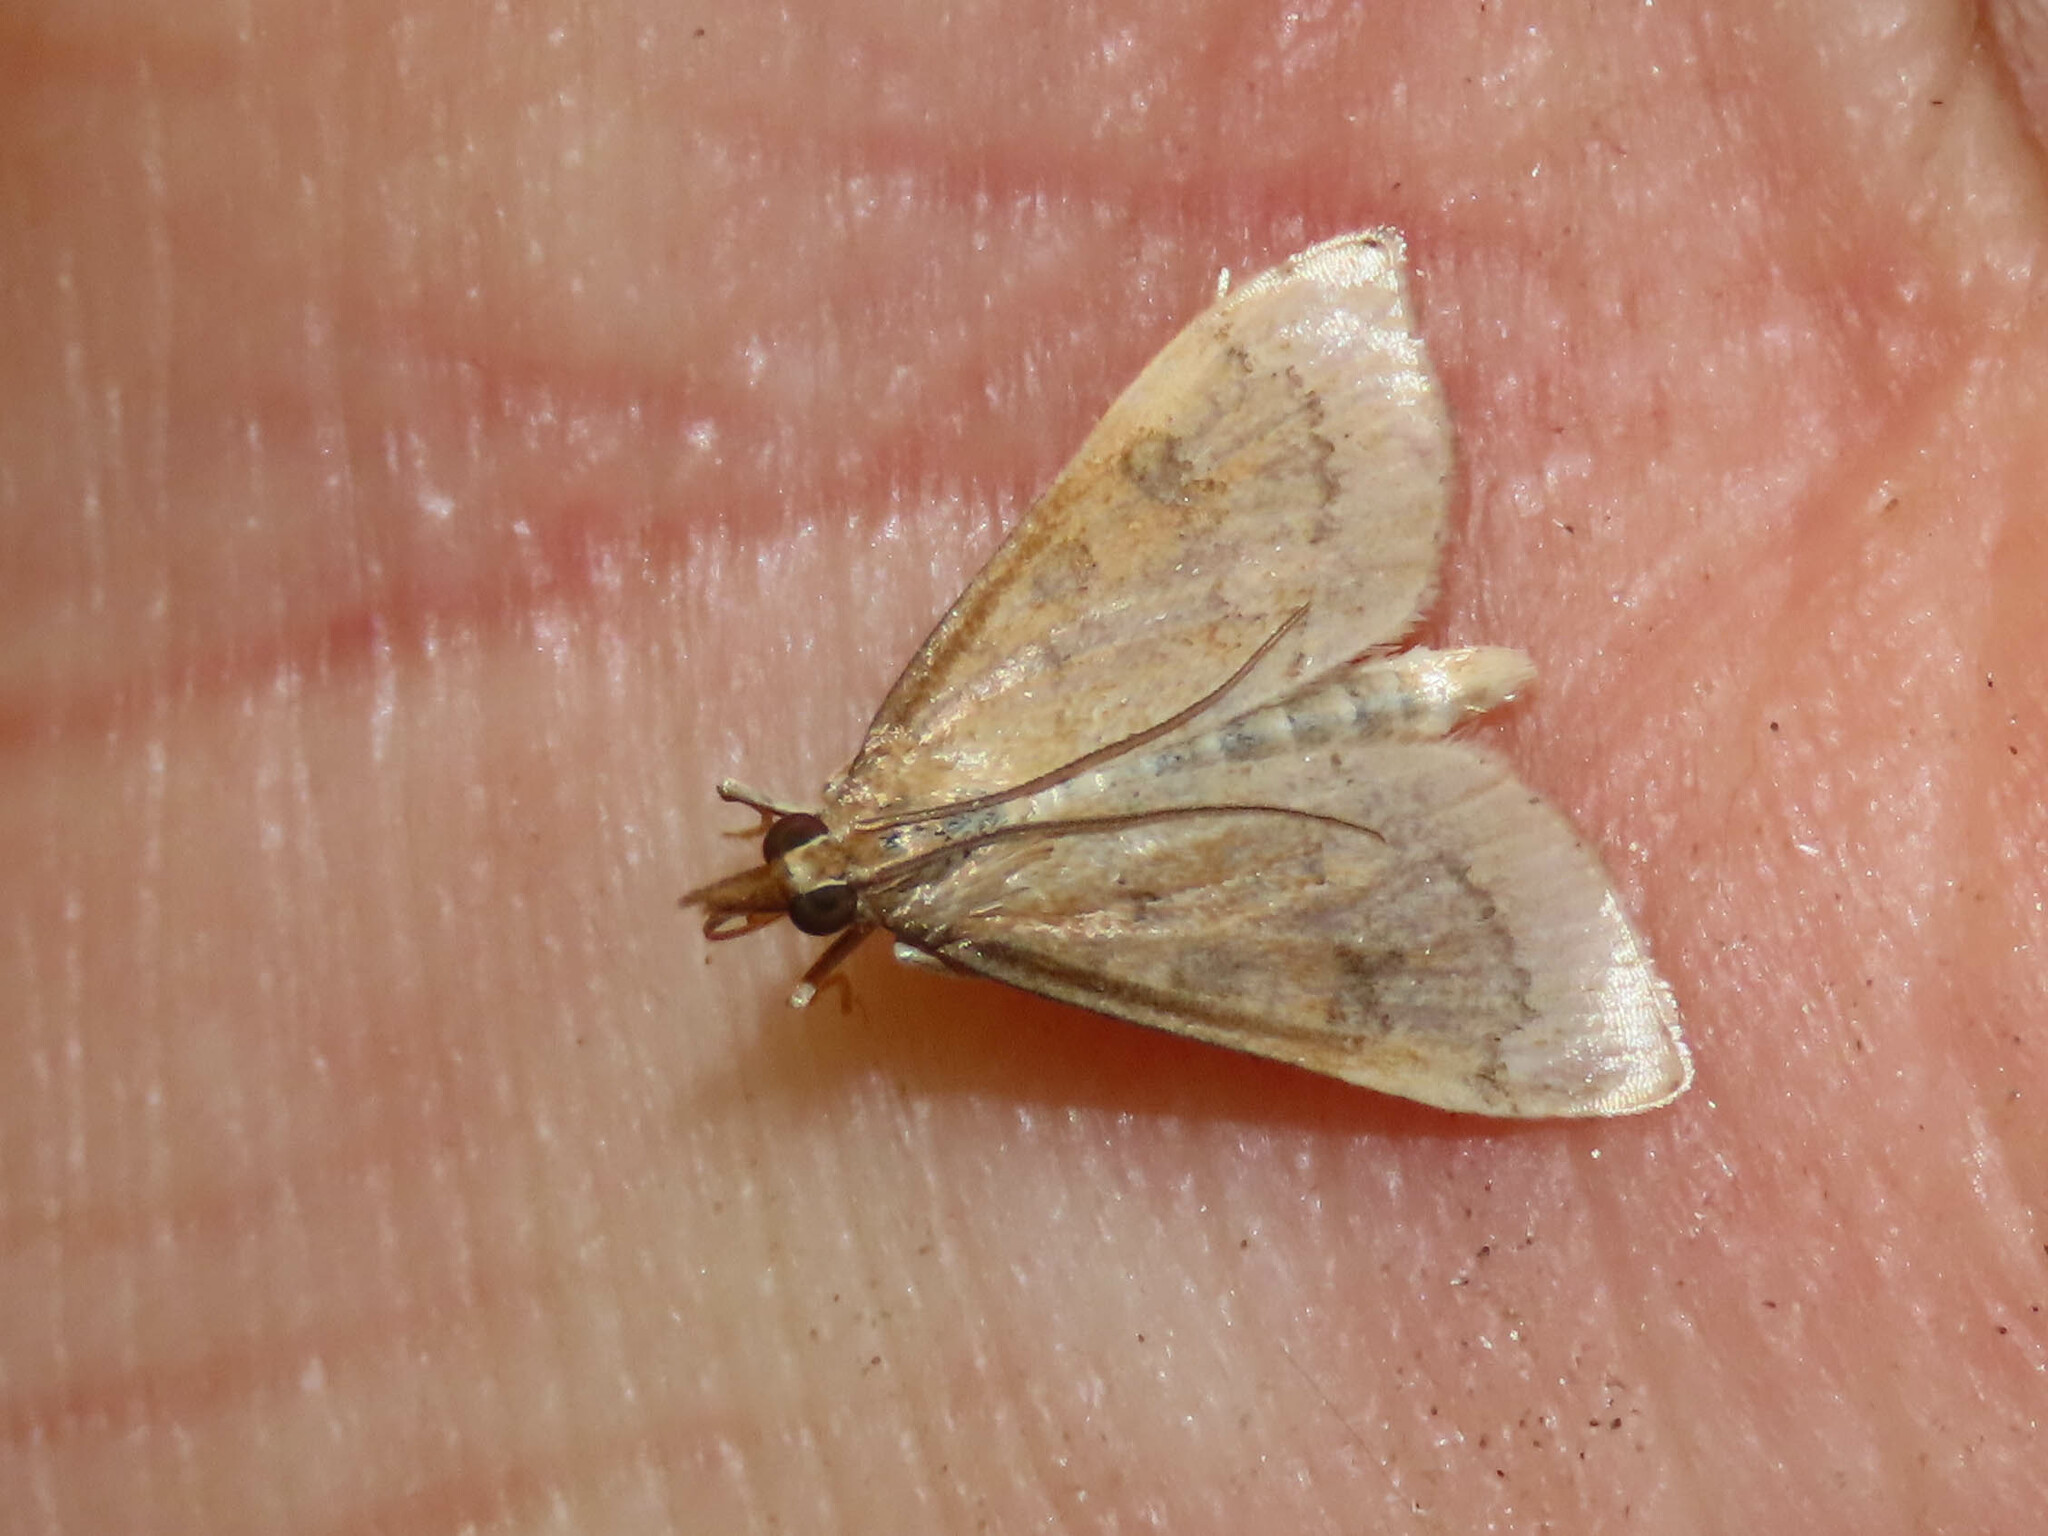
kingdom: Animalia
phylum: Arthropoda
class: Insecta
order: Lepidoptera
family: Crambidae
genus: Udea
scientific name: Udea rubigalis
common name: Celery leaftier moth
